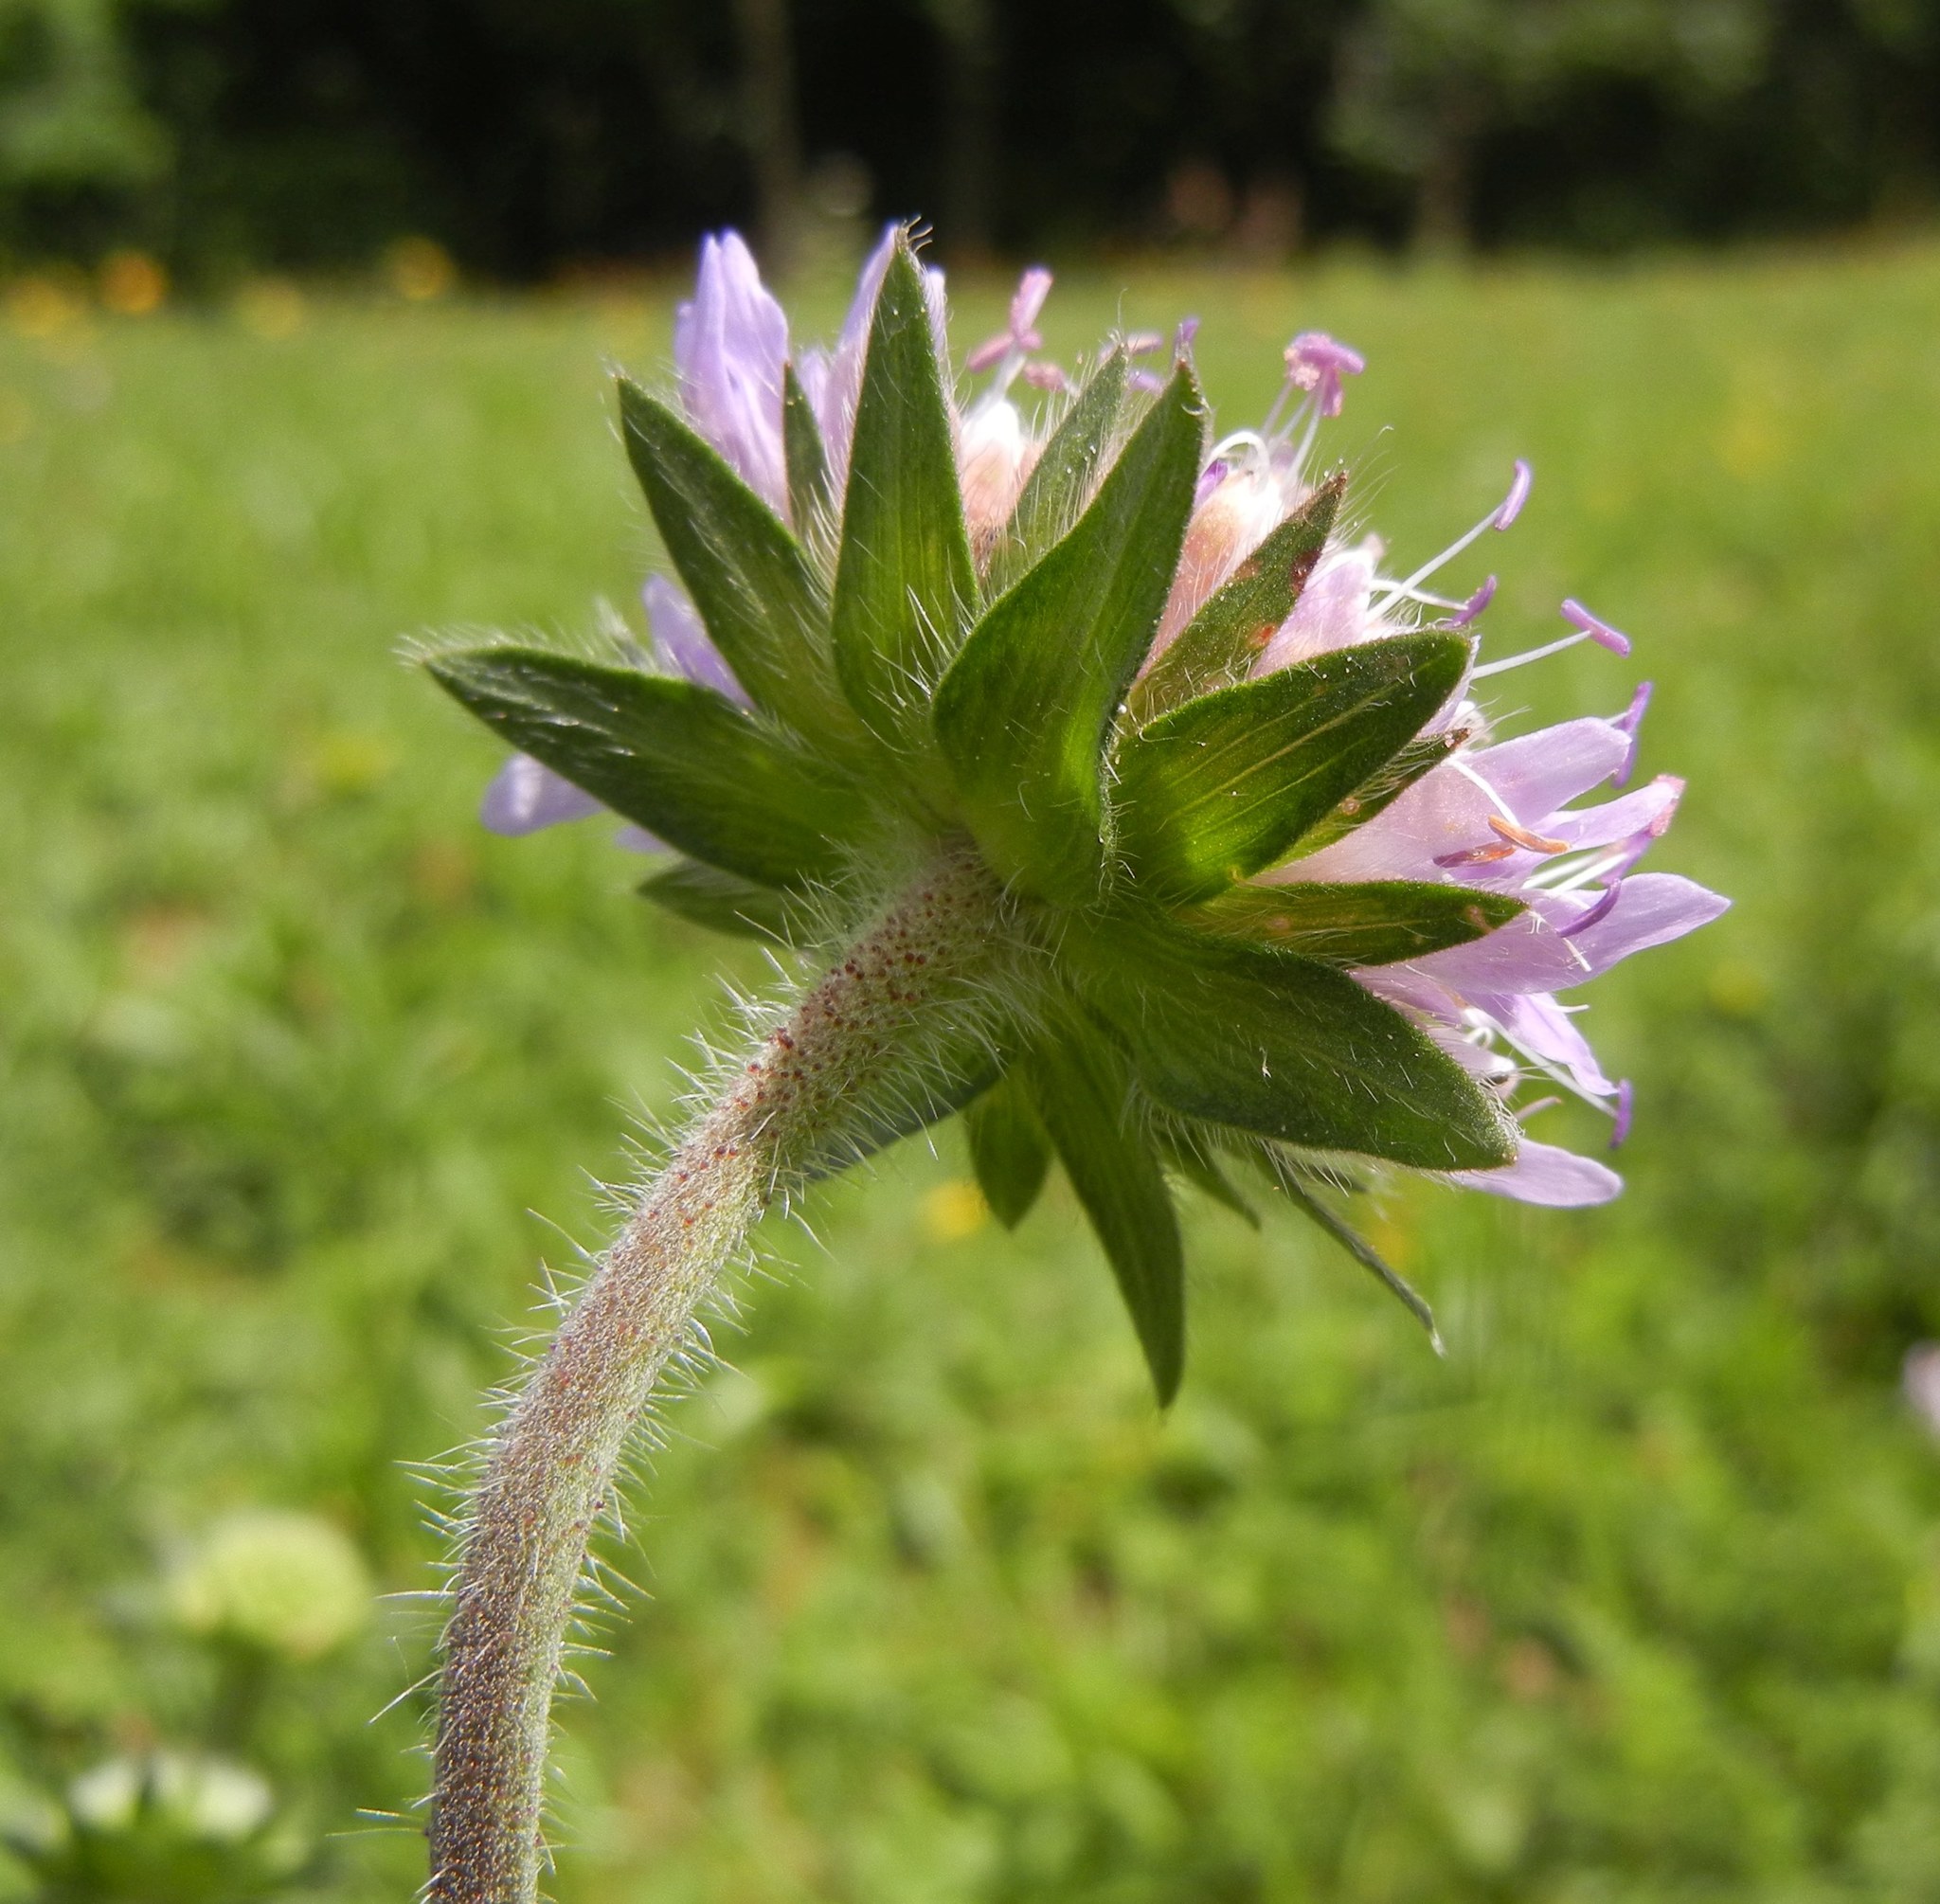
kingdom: Plantae
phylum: Tracheophyta
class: Magnoliopsida
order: Dipsacales
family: Caprifoliaceae
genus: Knautia
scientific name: Knautia arvensis
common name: Field scabiosa
